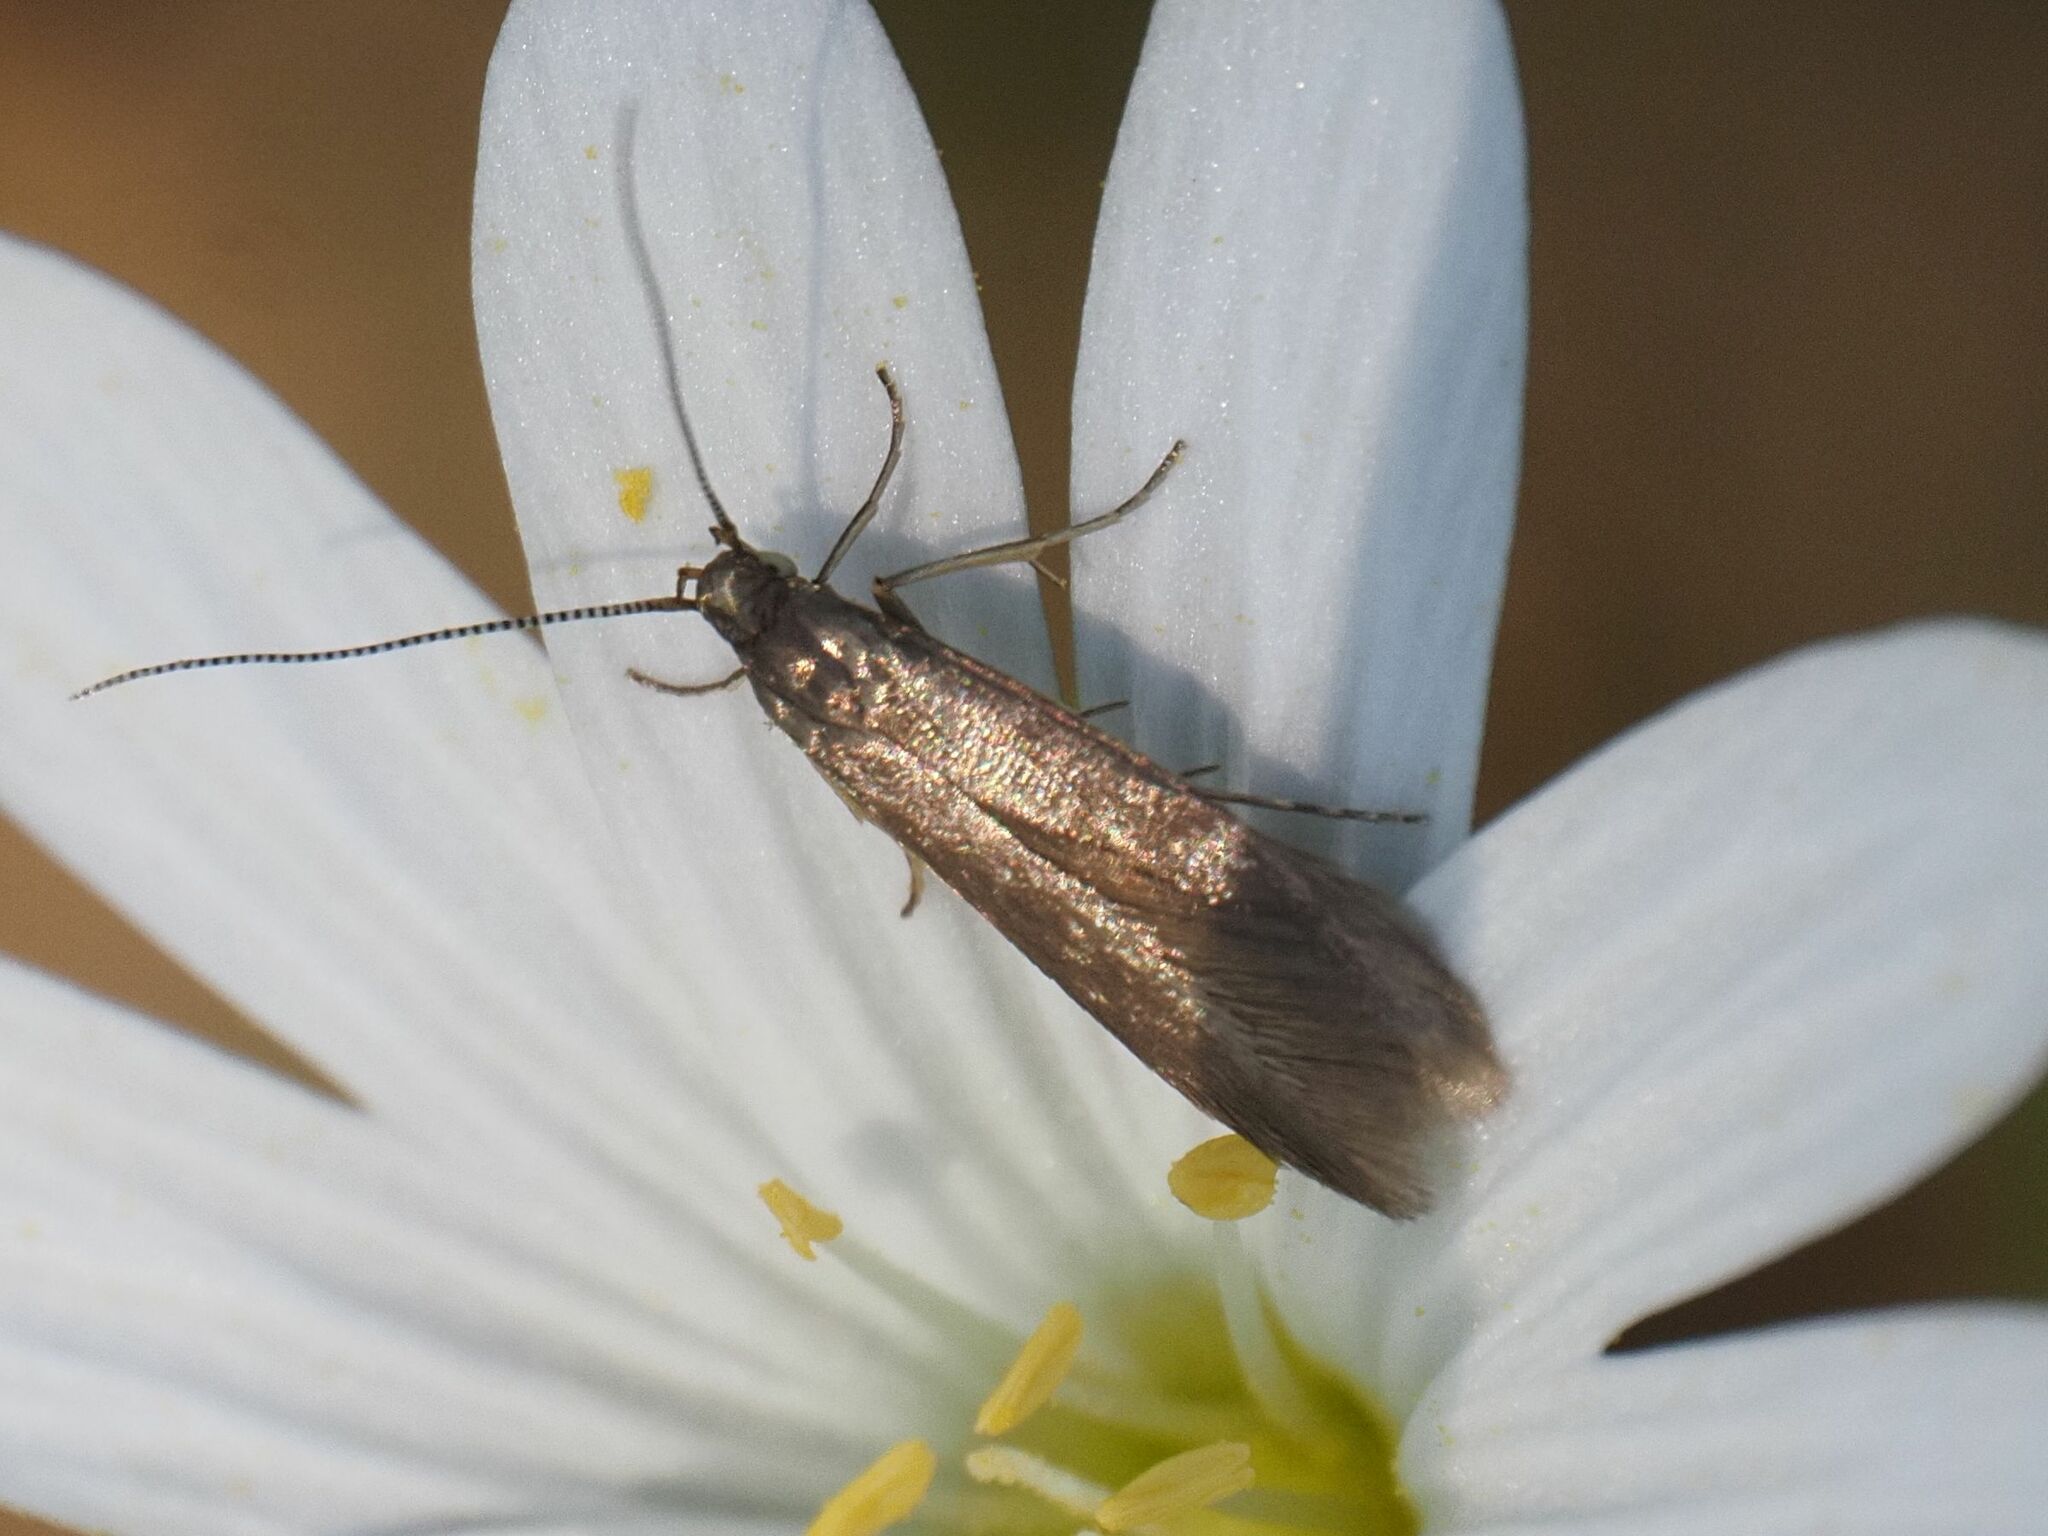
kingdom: Animalia
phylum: Arthropoda
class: Insecta
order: Lepidoptera
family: Coleophoridae
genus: Metriotes
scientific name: Metriotes lutarea
